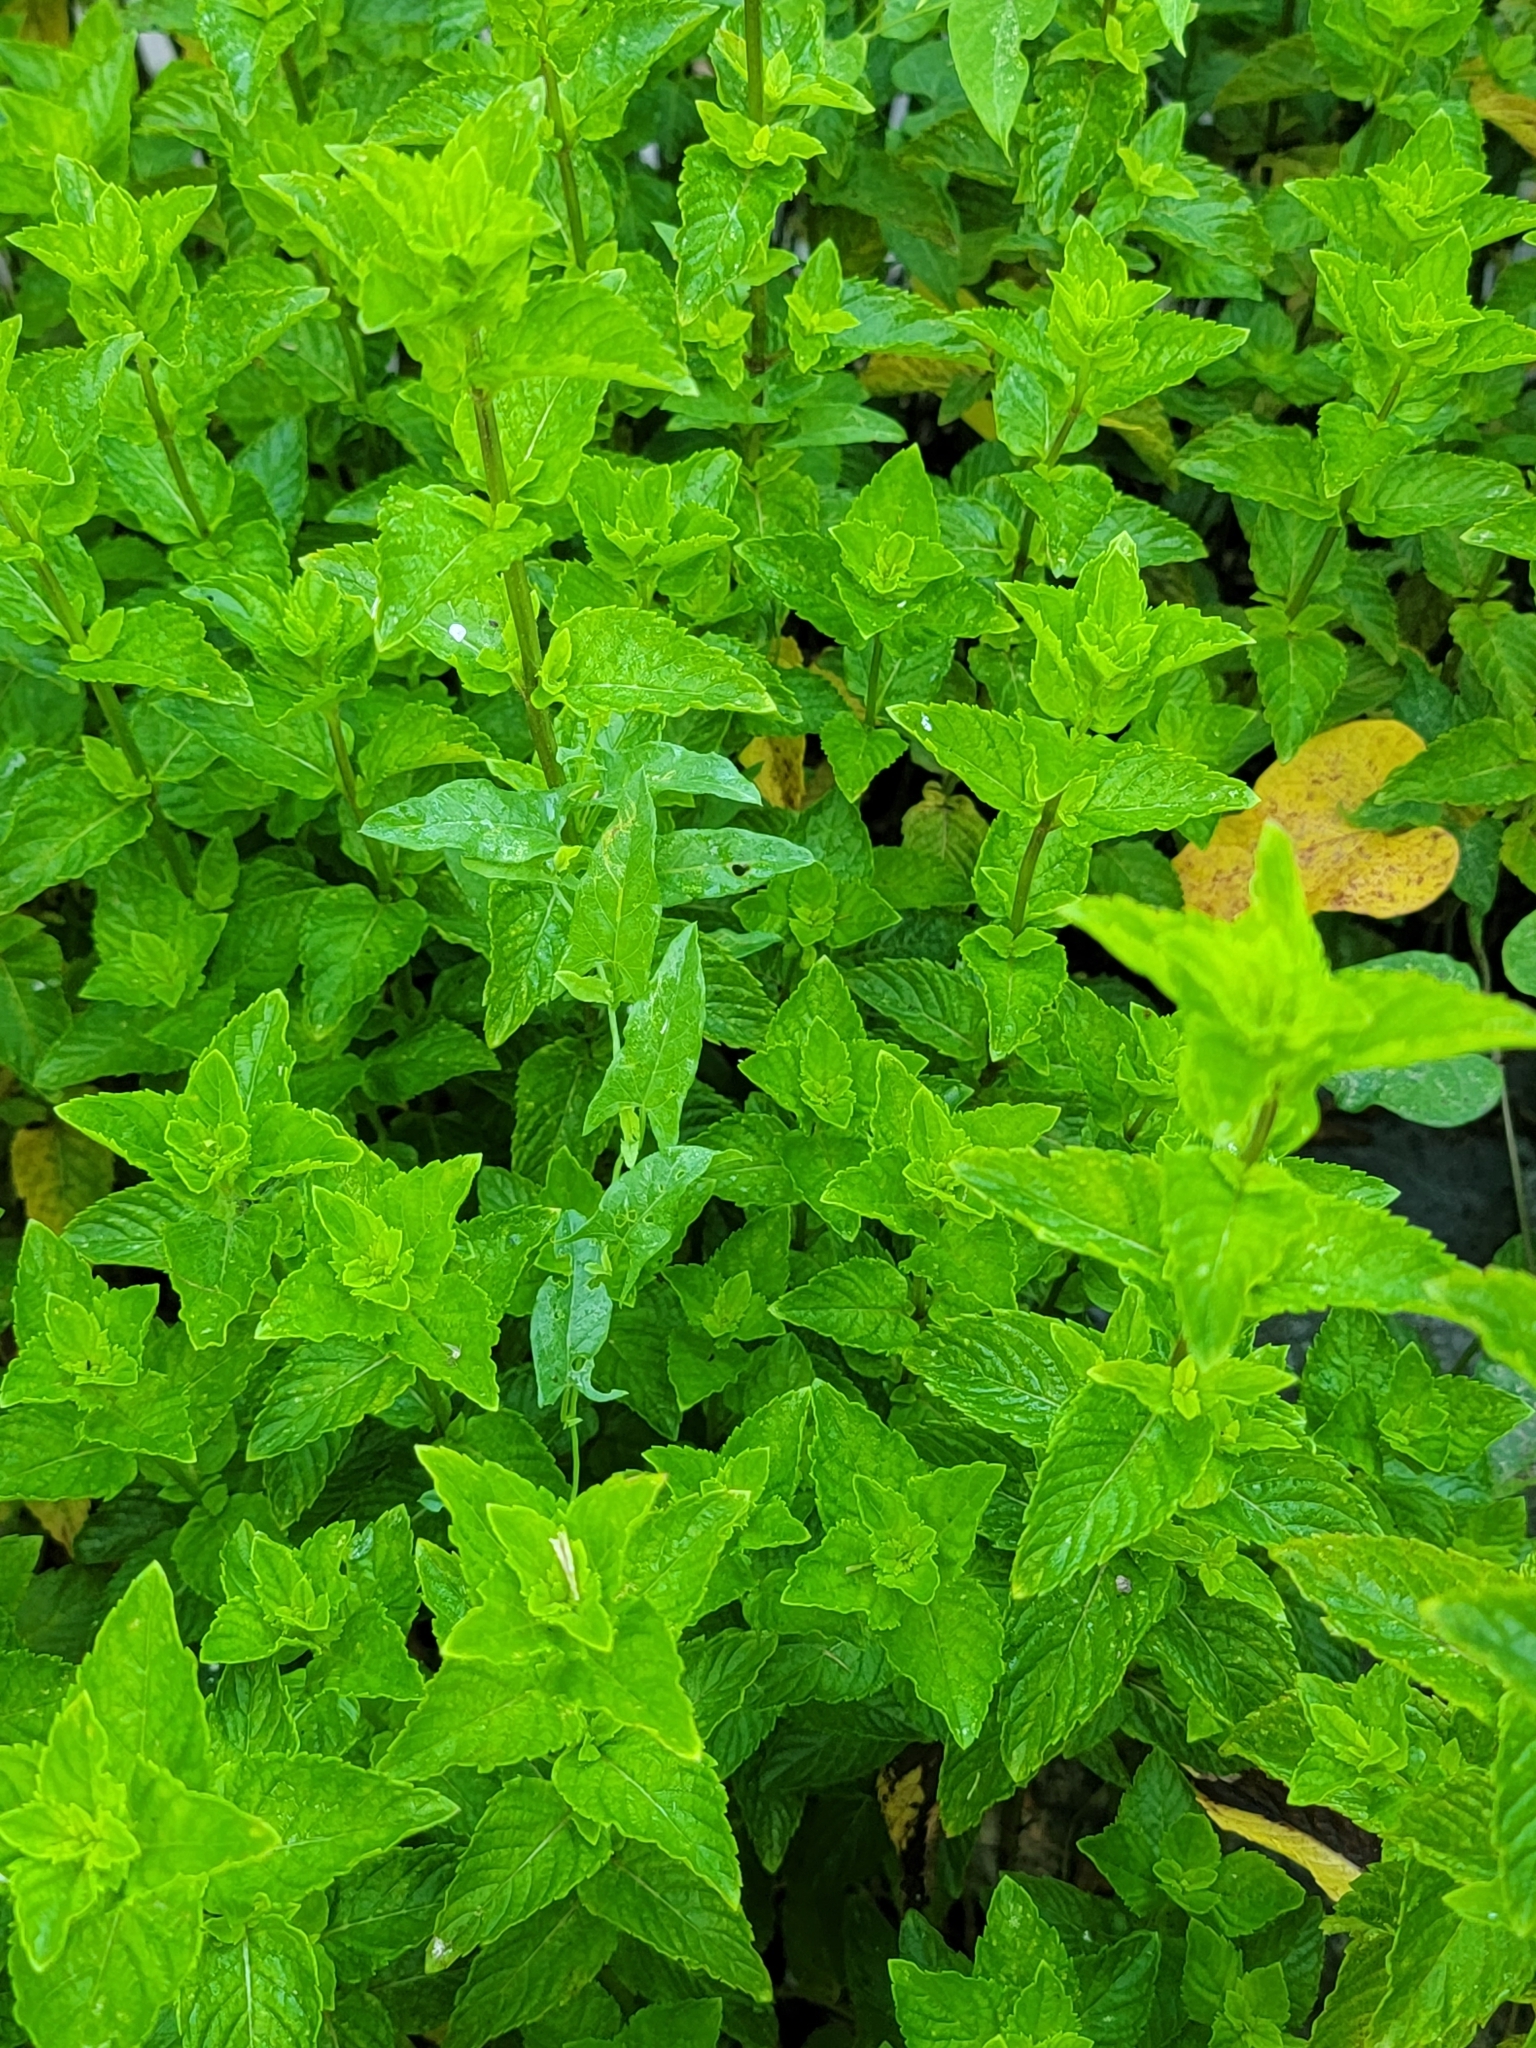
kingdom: Plantae
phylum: Tracheophyta
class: Magnoliopsida
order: Lamiales
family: Lamiaceae
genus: Mentha
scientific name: Mentha spicata
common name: Spearmint
